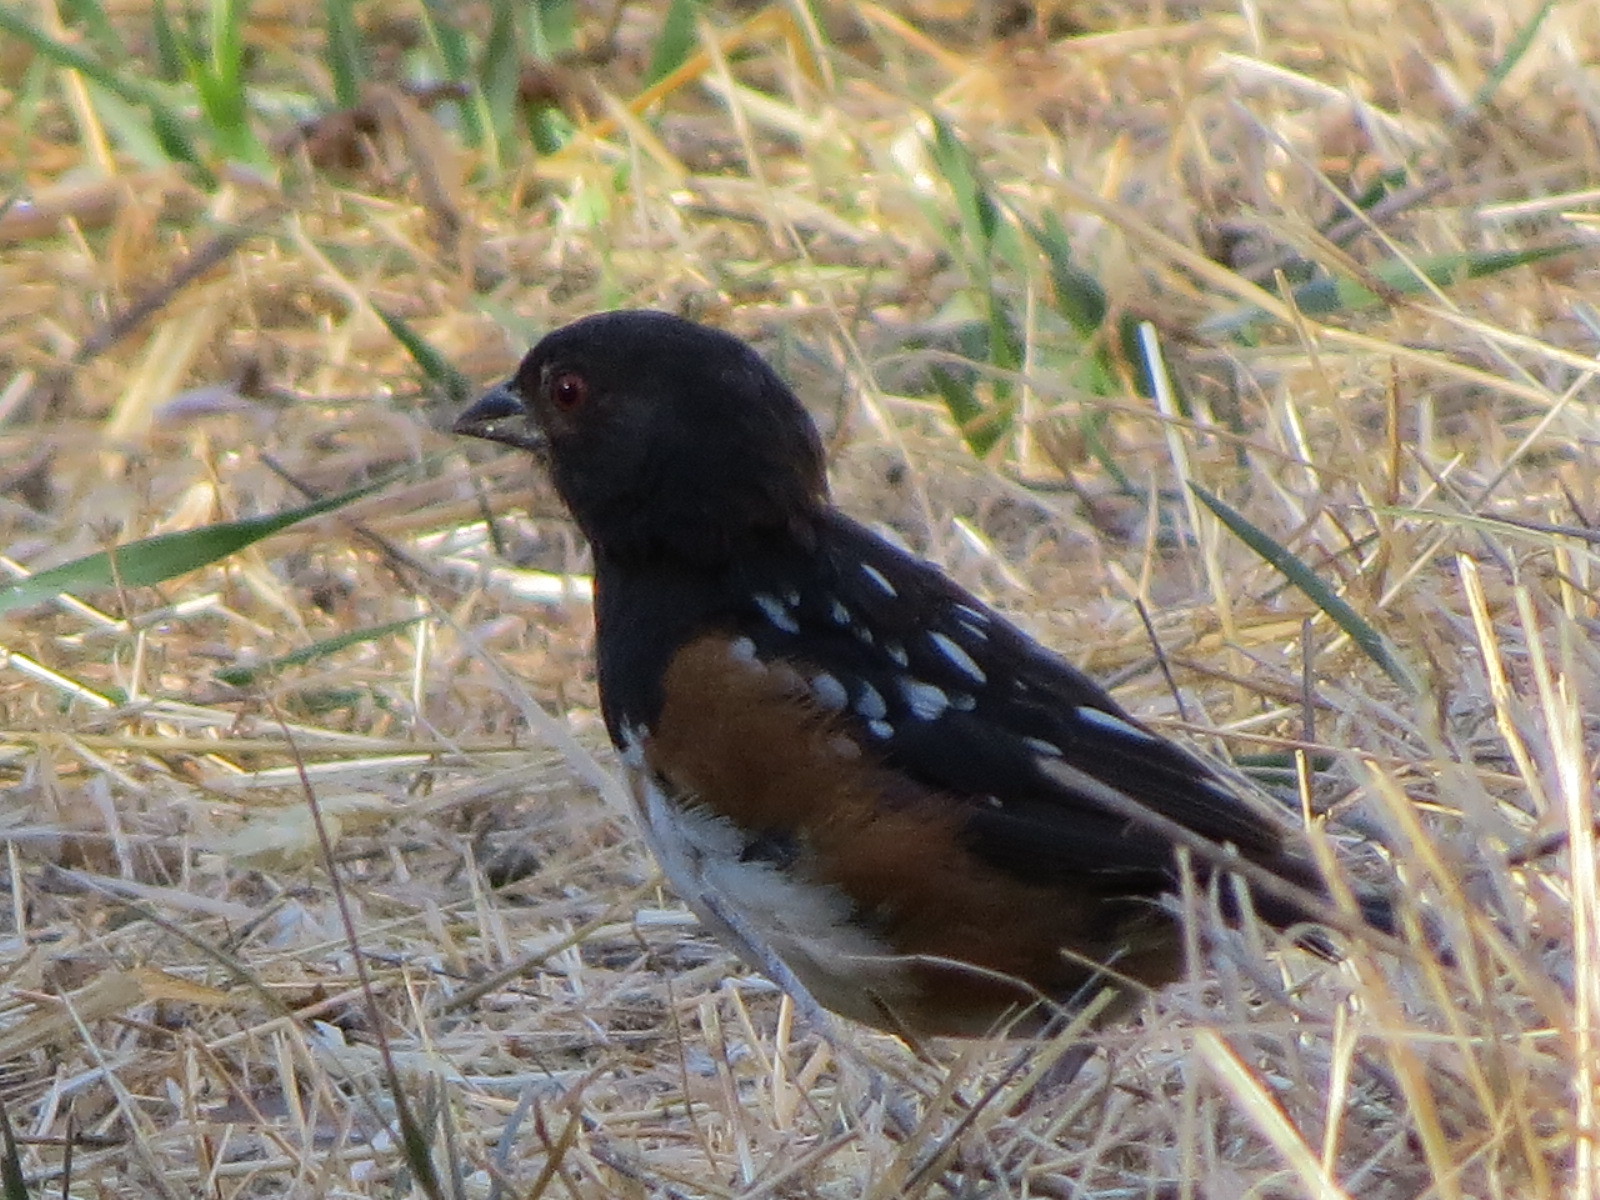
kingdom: Animalia
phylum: Chordata
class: Aves
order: Passeriformes
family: Passerellidae
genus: Pipilo
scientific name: Pipilo maculatus
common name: Spotted towhee
